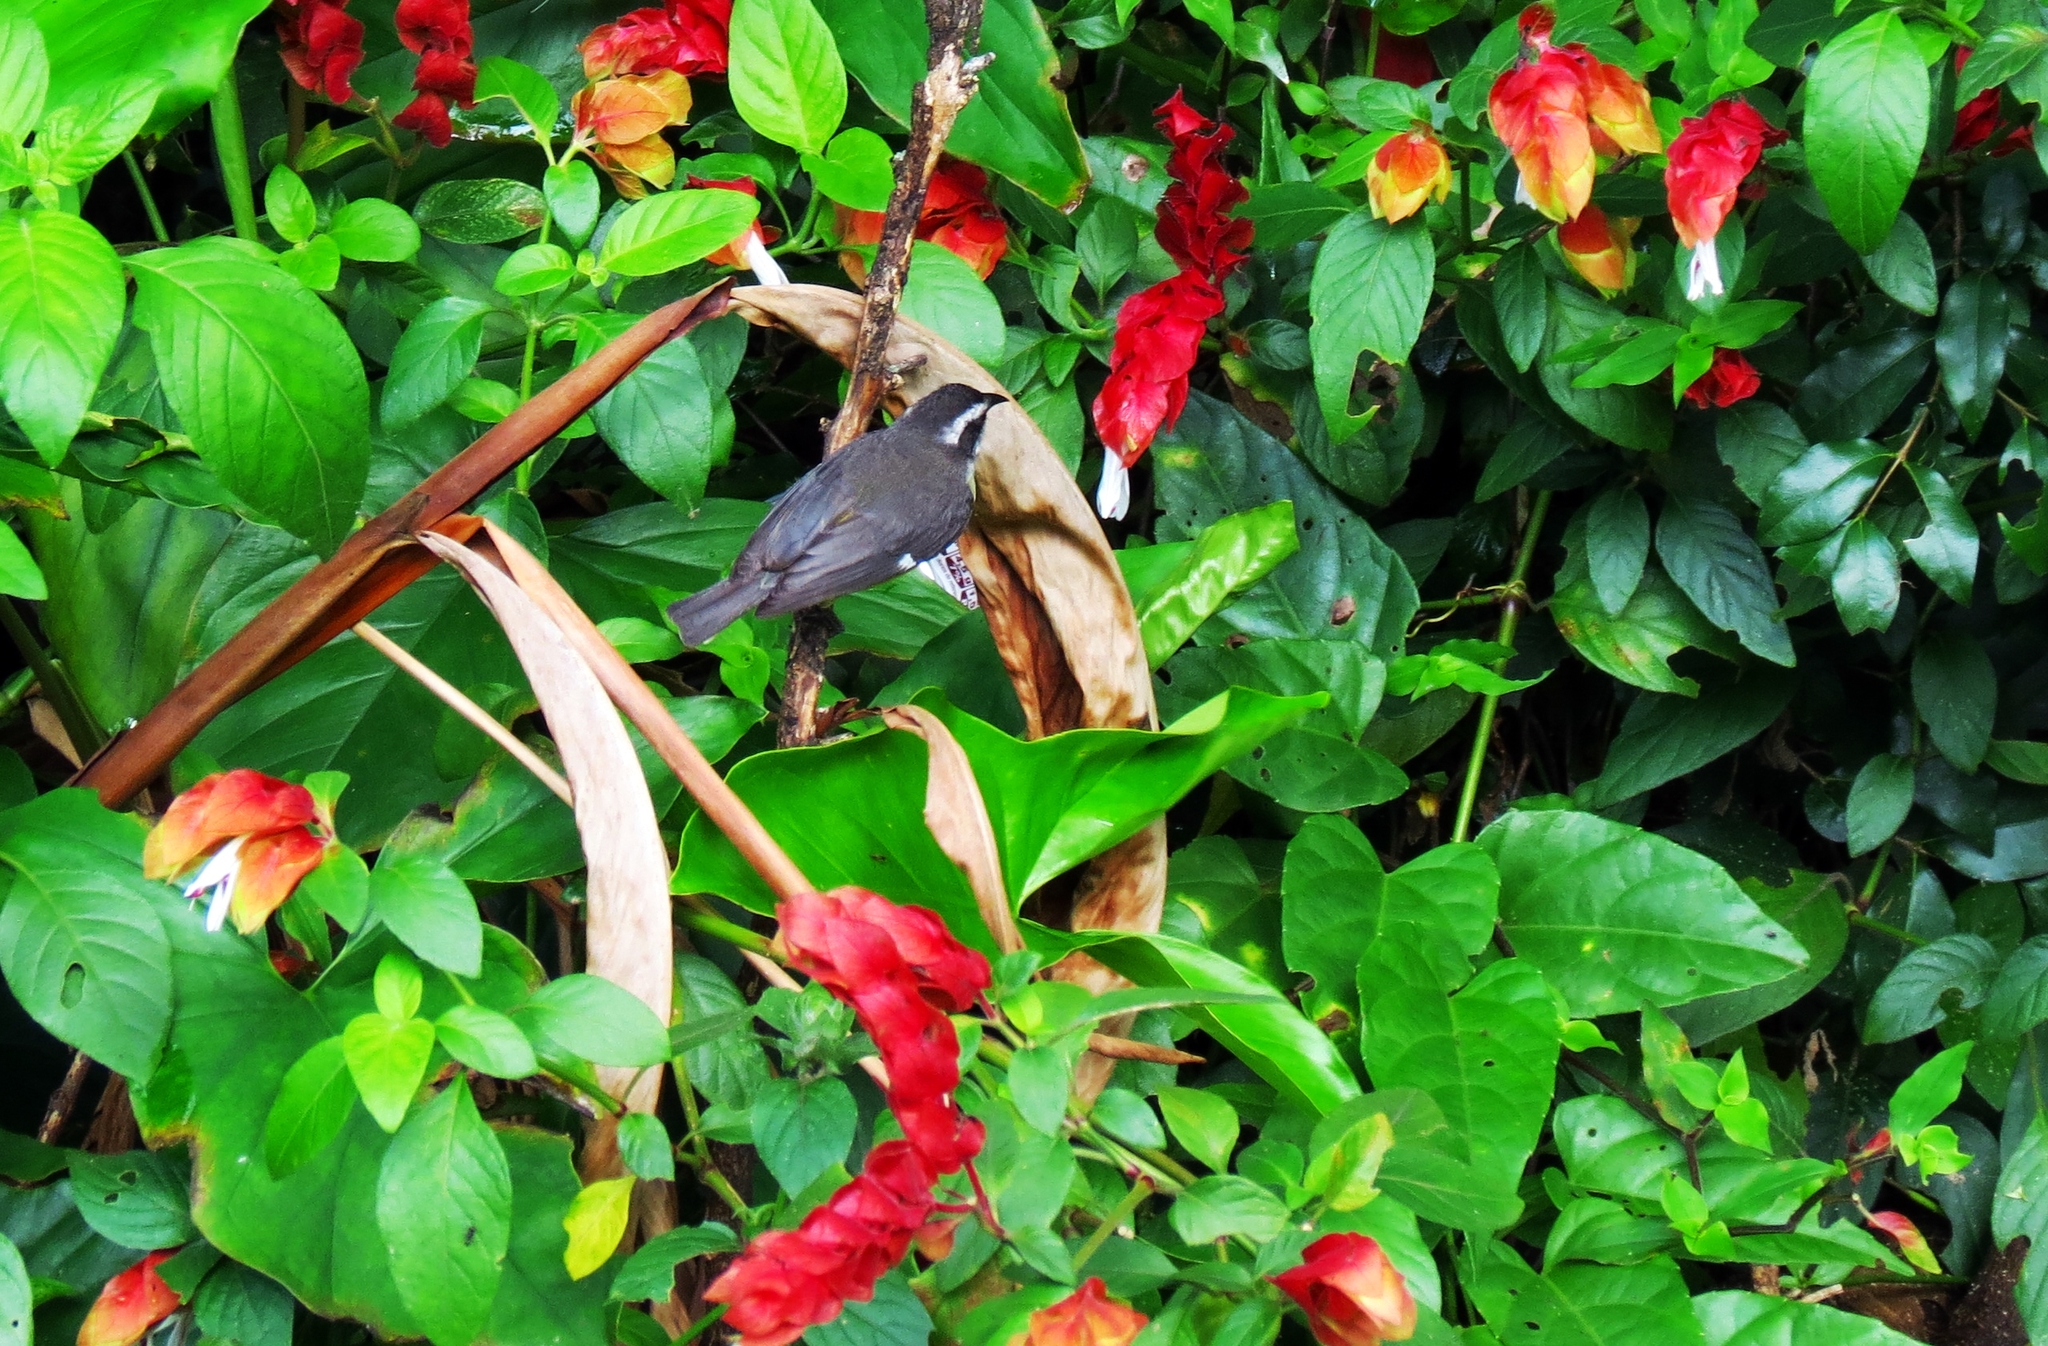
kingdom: Animalia
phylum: Chordata
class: Aves
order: Passeriformes
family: Thraupidae
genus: Coereba
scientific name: Coereba flaveola
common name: Bananaquit
